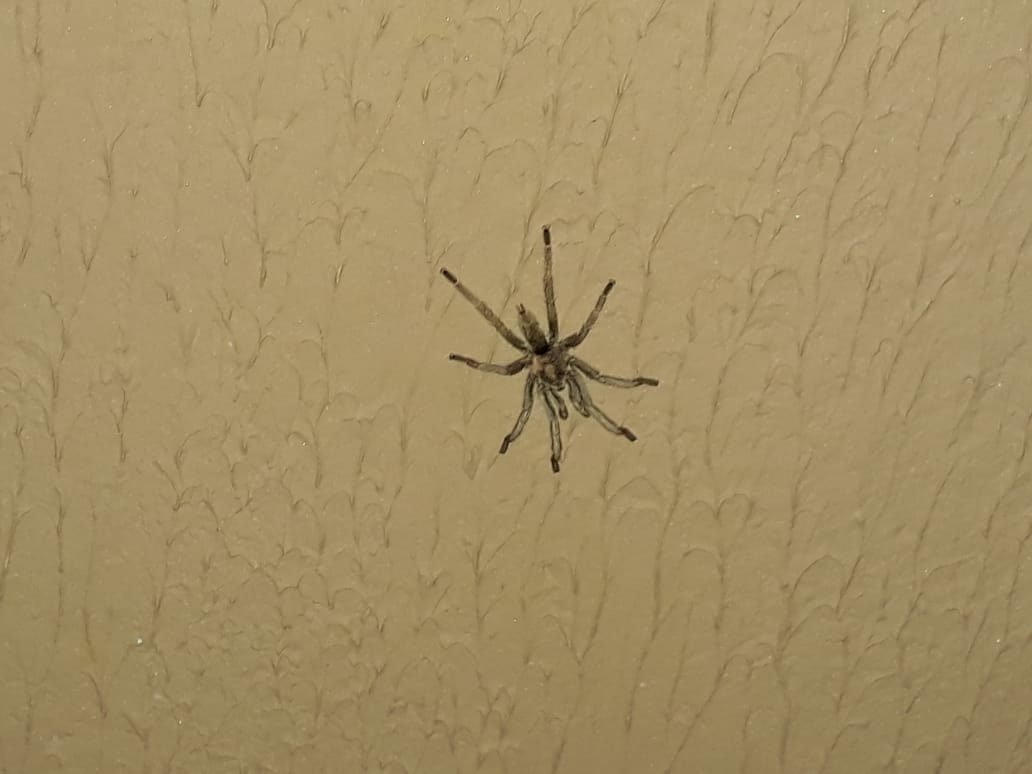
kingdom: Animalia
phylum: Arthropoda
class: Arachnida
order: Araneae
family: Theraphosidae
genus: Dolichothele
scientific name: Dolichothele exilis
